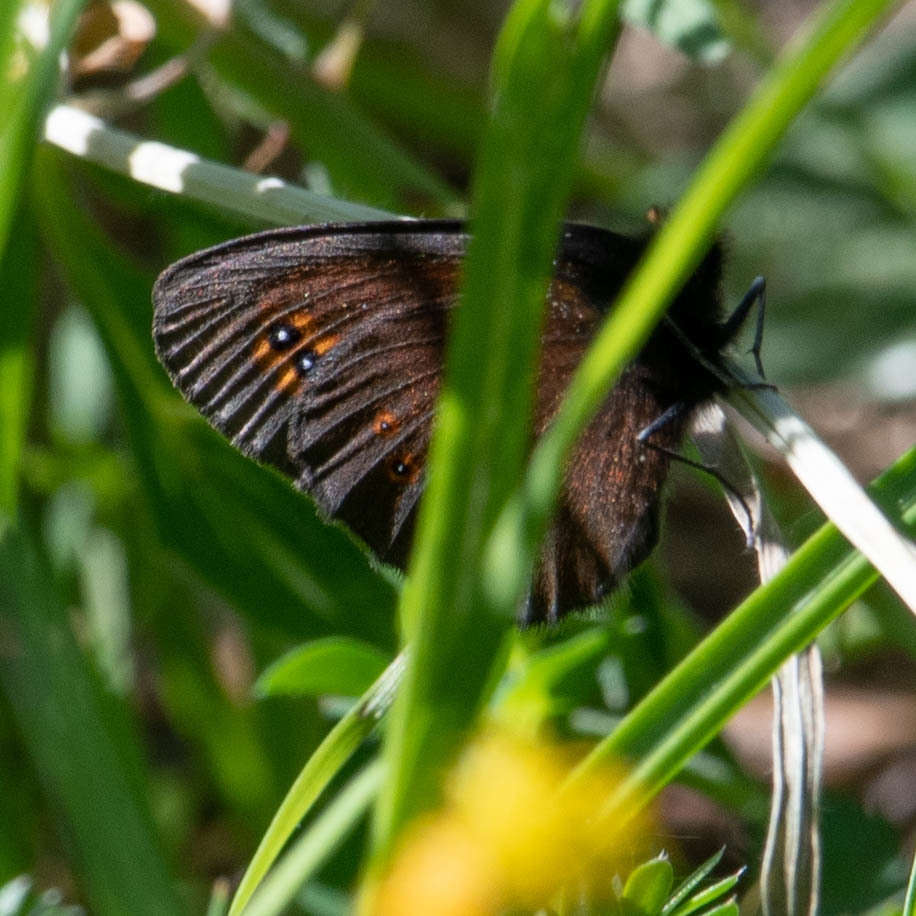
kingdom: Animalia
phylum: Arthropoda
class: Insecta
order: Lepidoptera
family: Nymphalidae
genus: Erebia
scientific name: Erebia medusa
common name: Woodland ringlet
